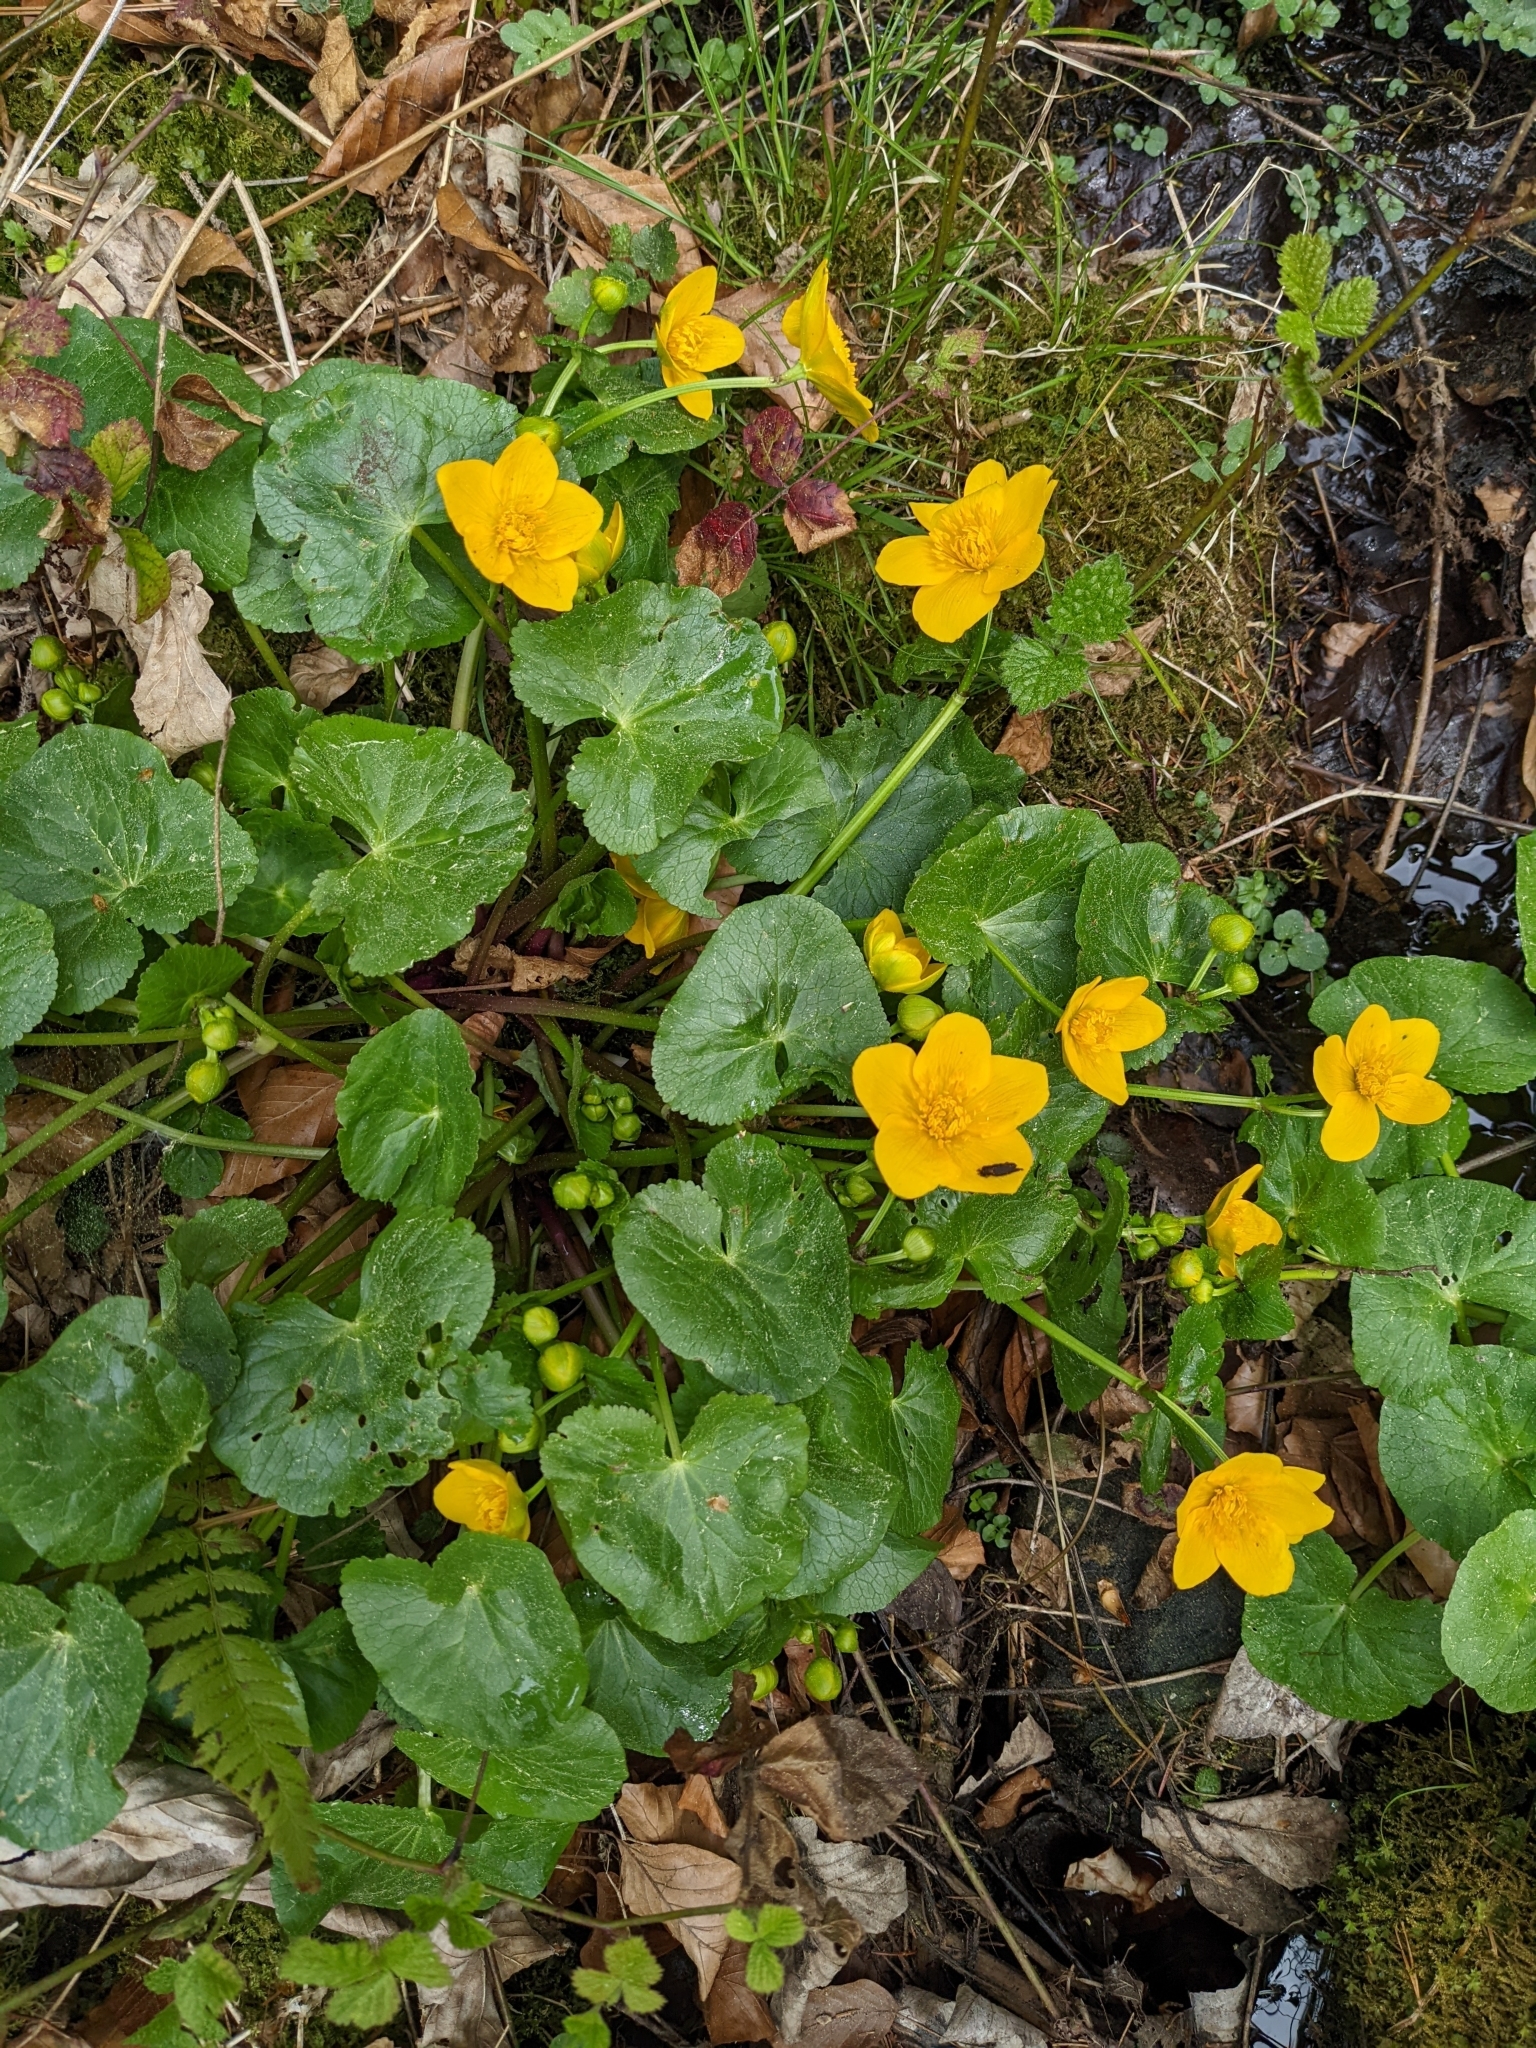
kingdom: Plantae
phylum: Tracheophyta
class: Magnoliopsida
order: Ranunculales
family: Ranunculaceae
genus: Caltha
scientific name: Caltha palustris
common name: Marsh marigold
